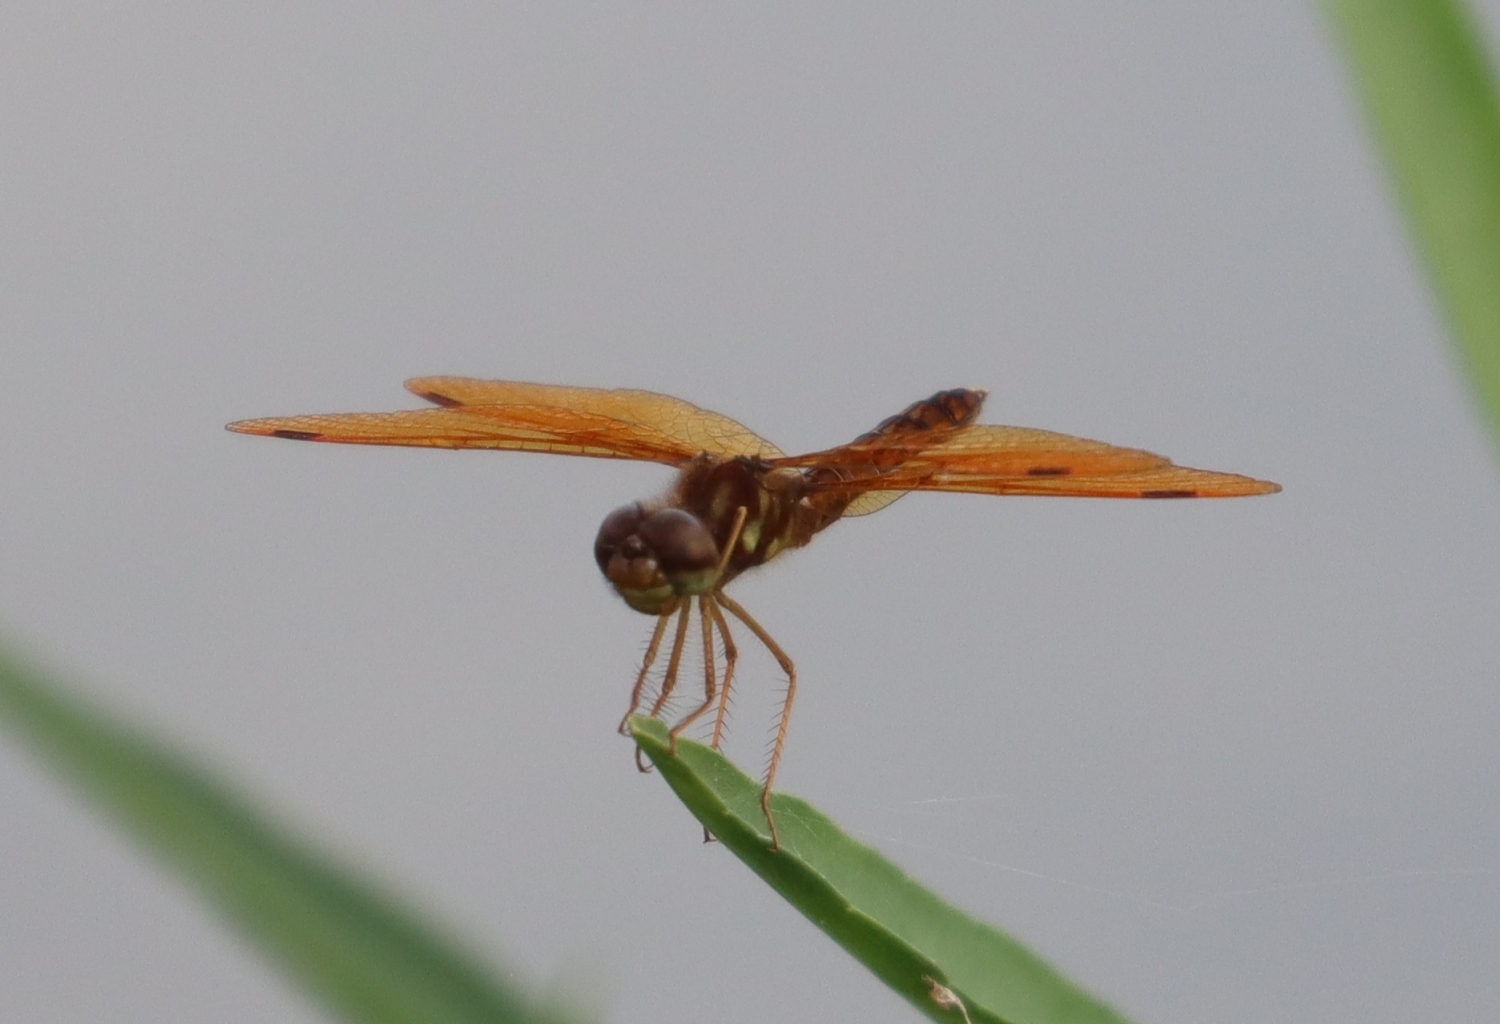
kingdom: Animalia
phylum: Arthropoda
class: Insecta
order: Odonata
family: Libellulidae
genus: Perithemis
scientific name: Perithemis tenera
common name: Eastern amberwing
